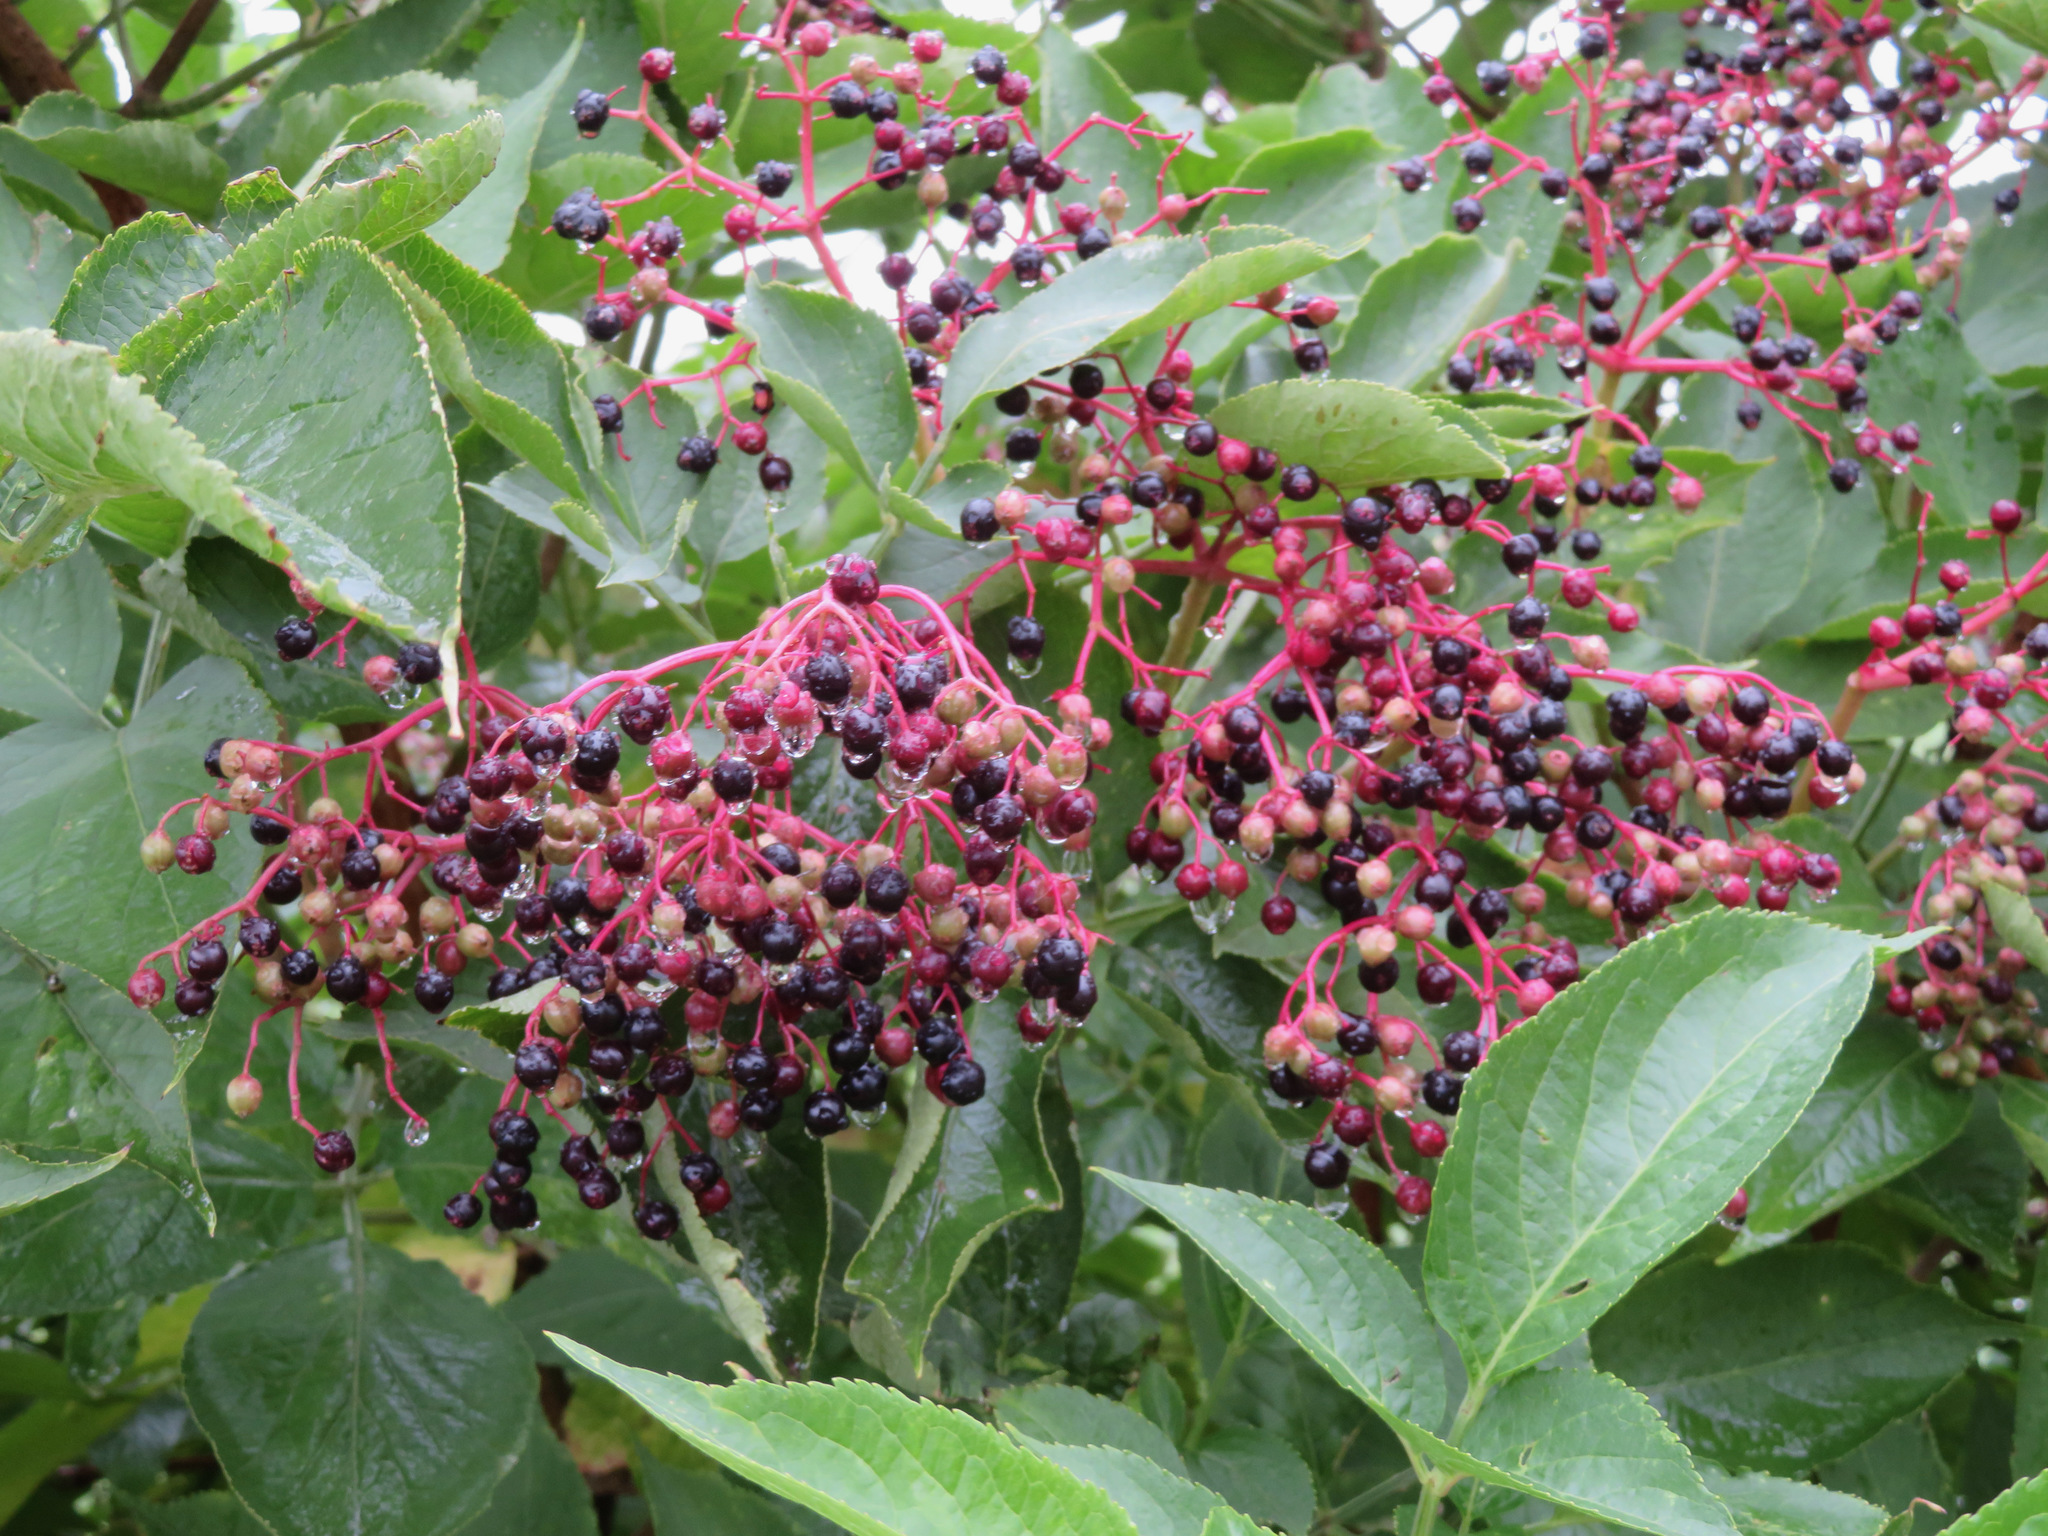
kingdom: Plantae
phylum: Tracheophyta
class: Magnoliopsida
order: Dipsacales
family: Viburnaceae
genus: Sambucus
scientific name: Sambucus nigra
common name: Elder
